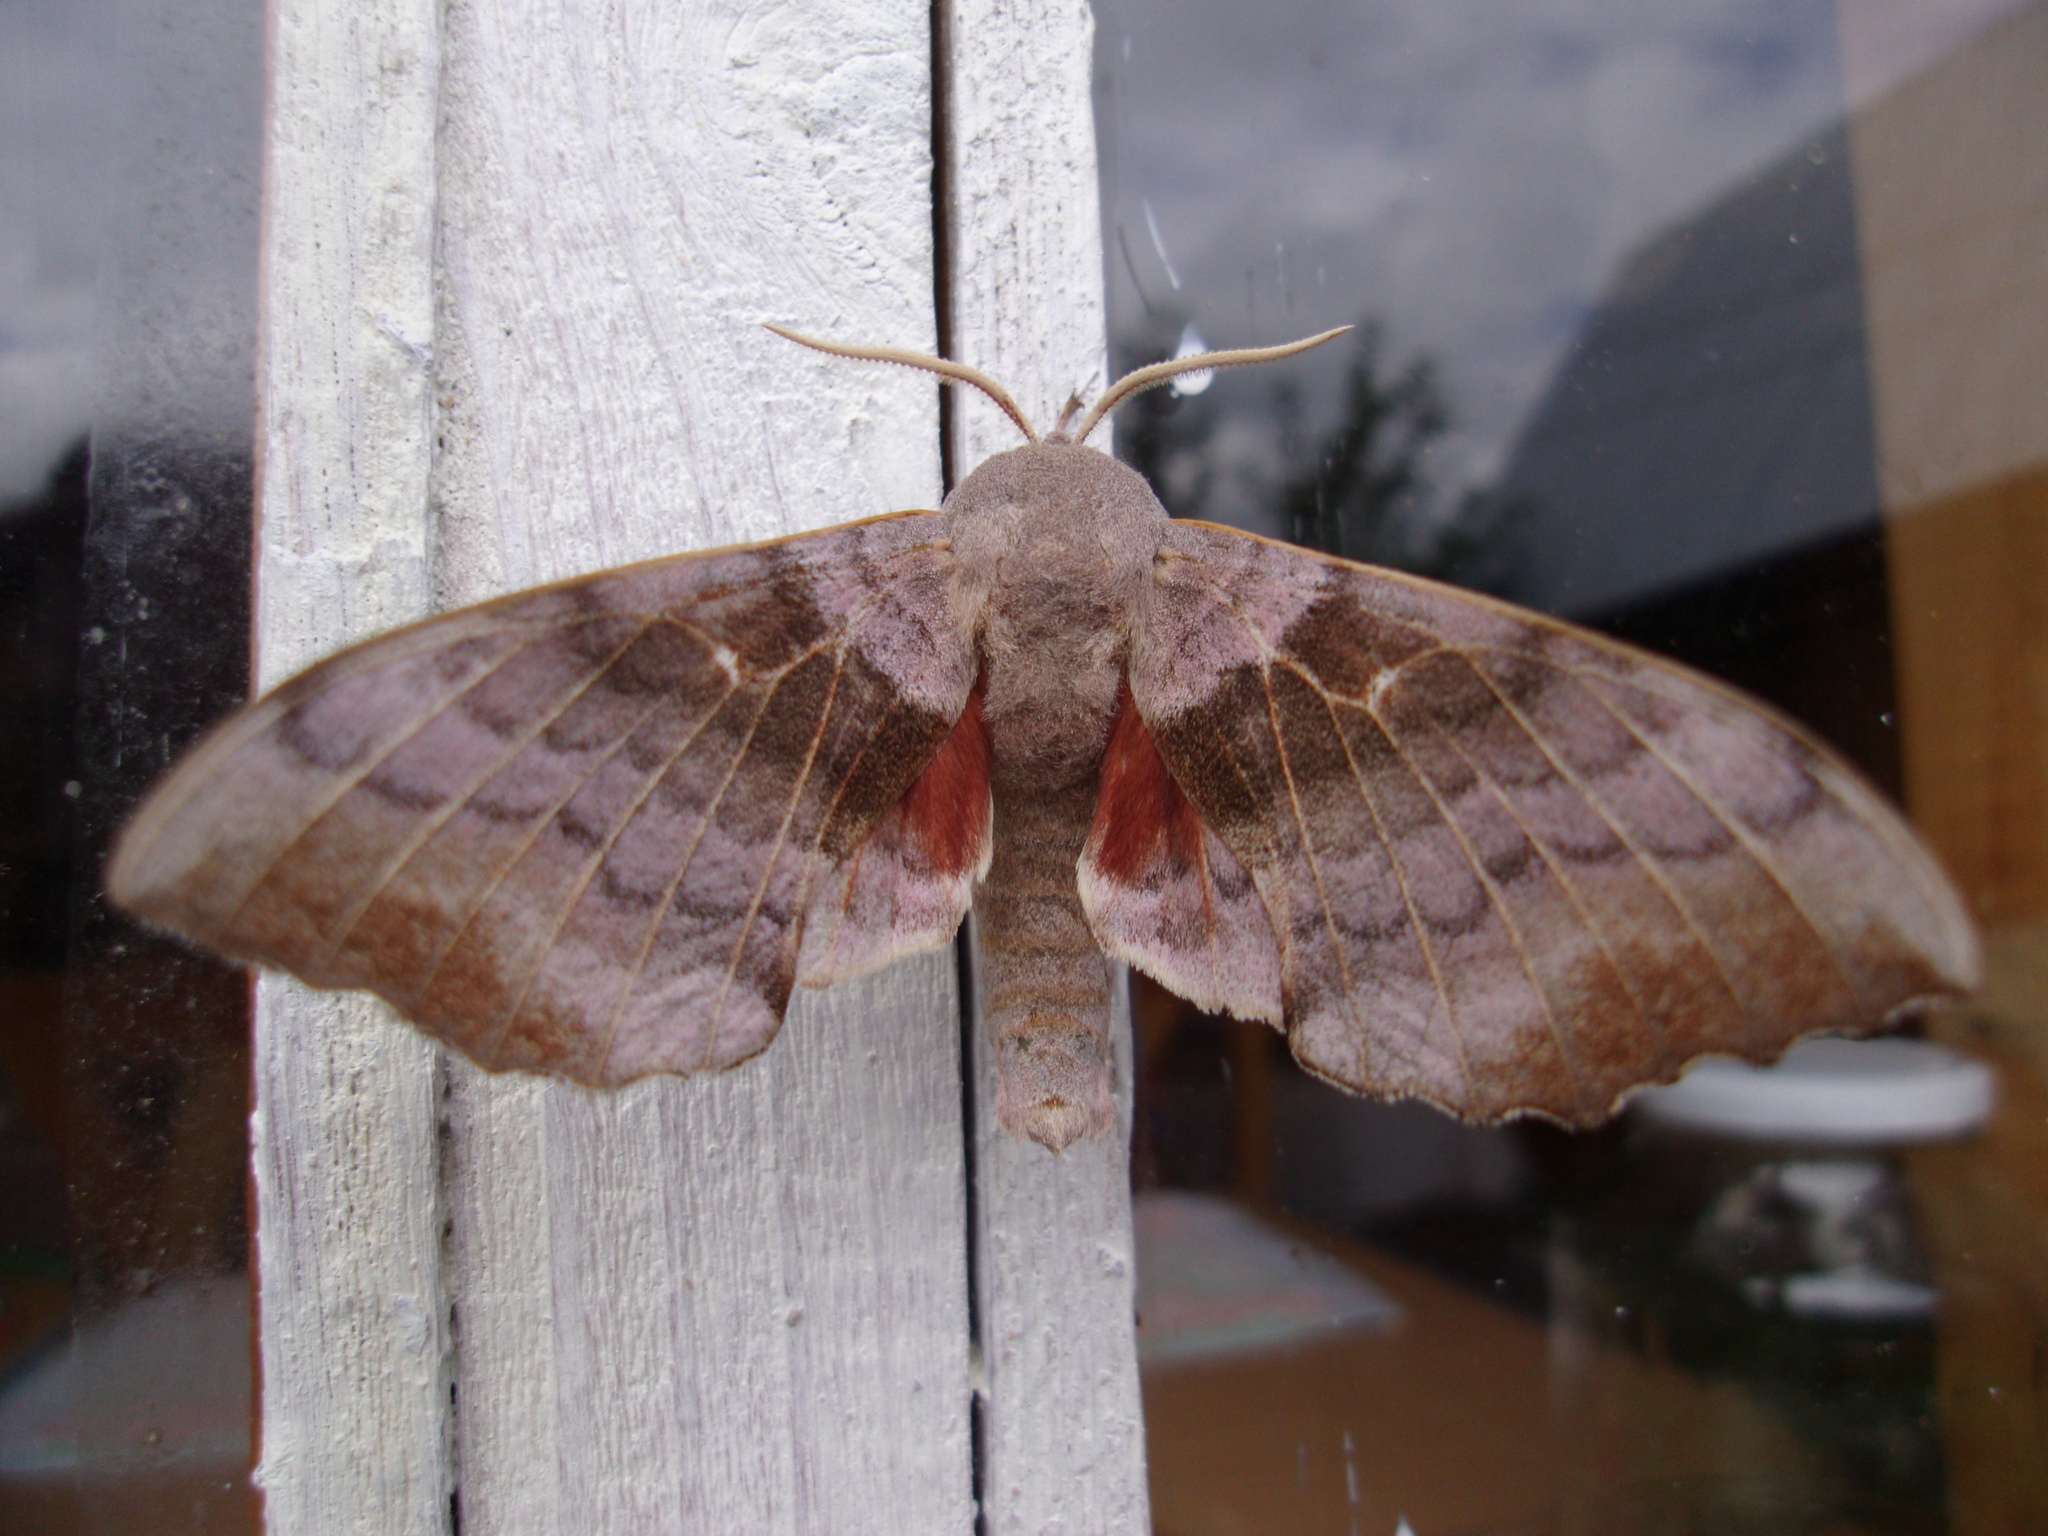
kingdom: Animalia
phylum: Arthropoda
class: Insecta
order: Lepidoptera
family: Sphingidae
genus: Laothoe
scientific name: Laothoe populi
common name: Poplar hawk-moth
